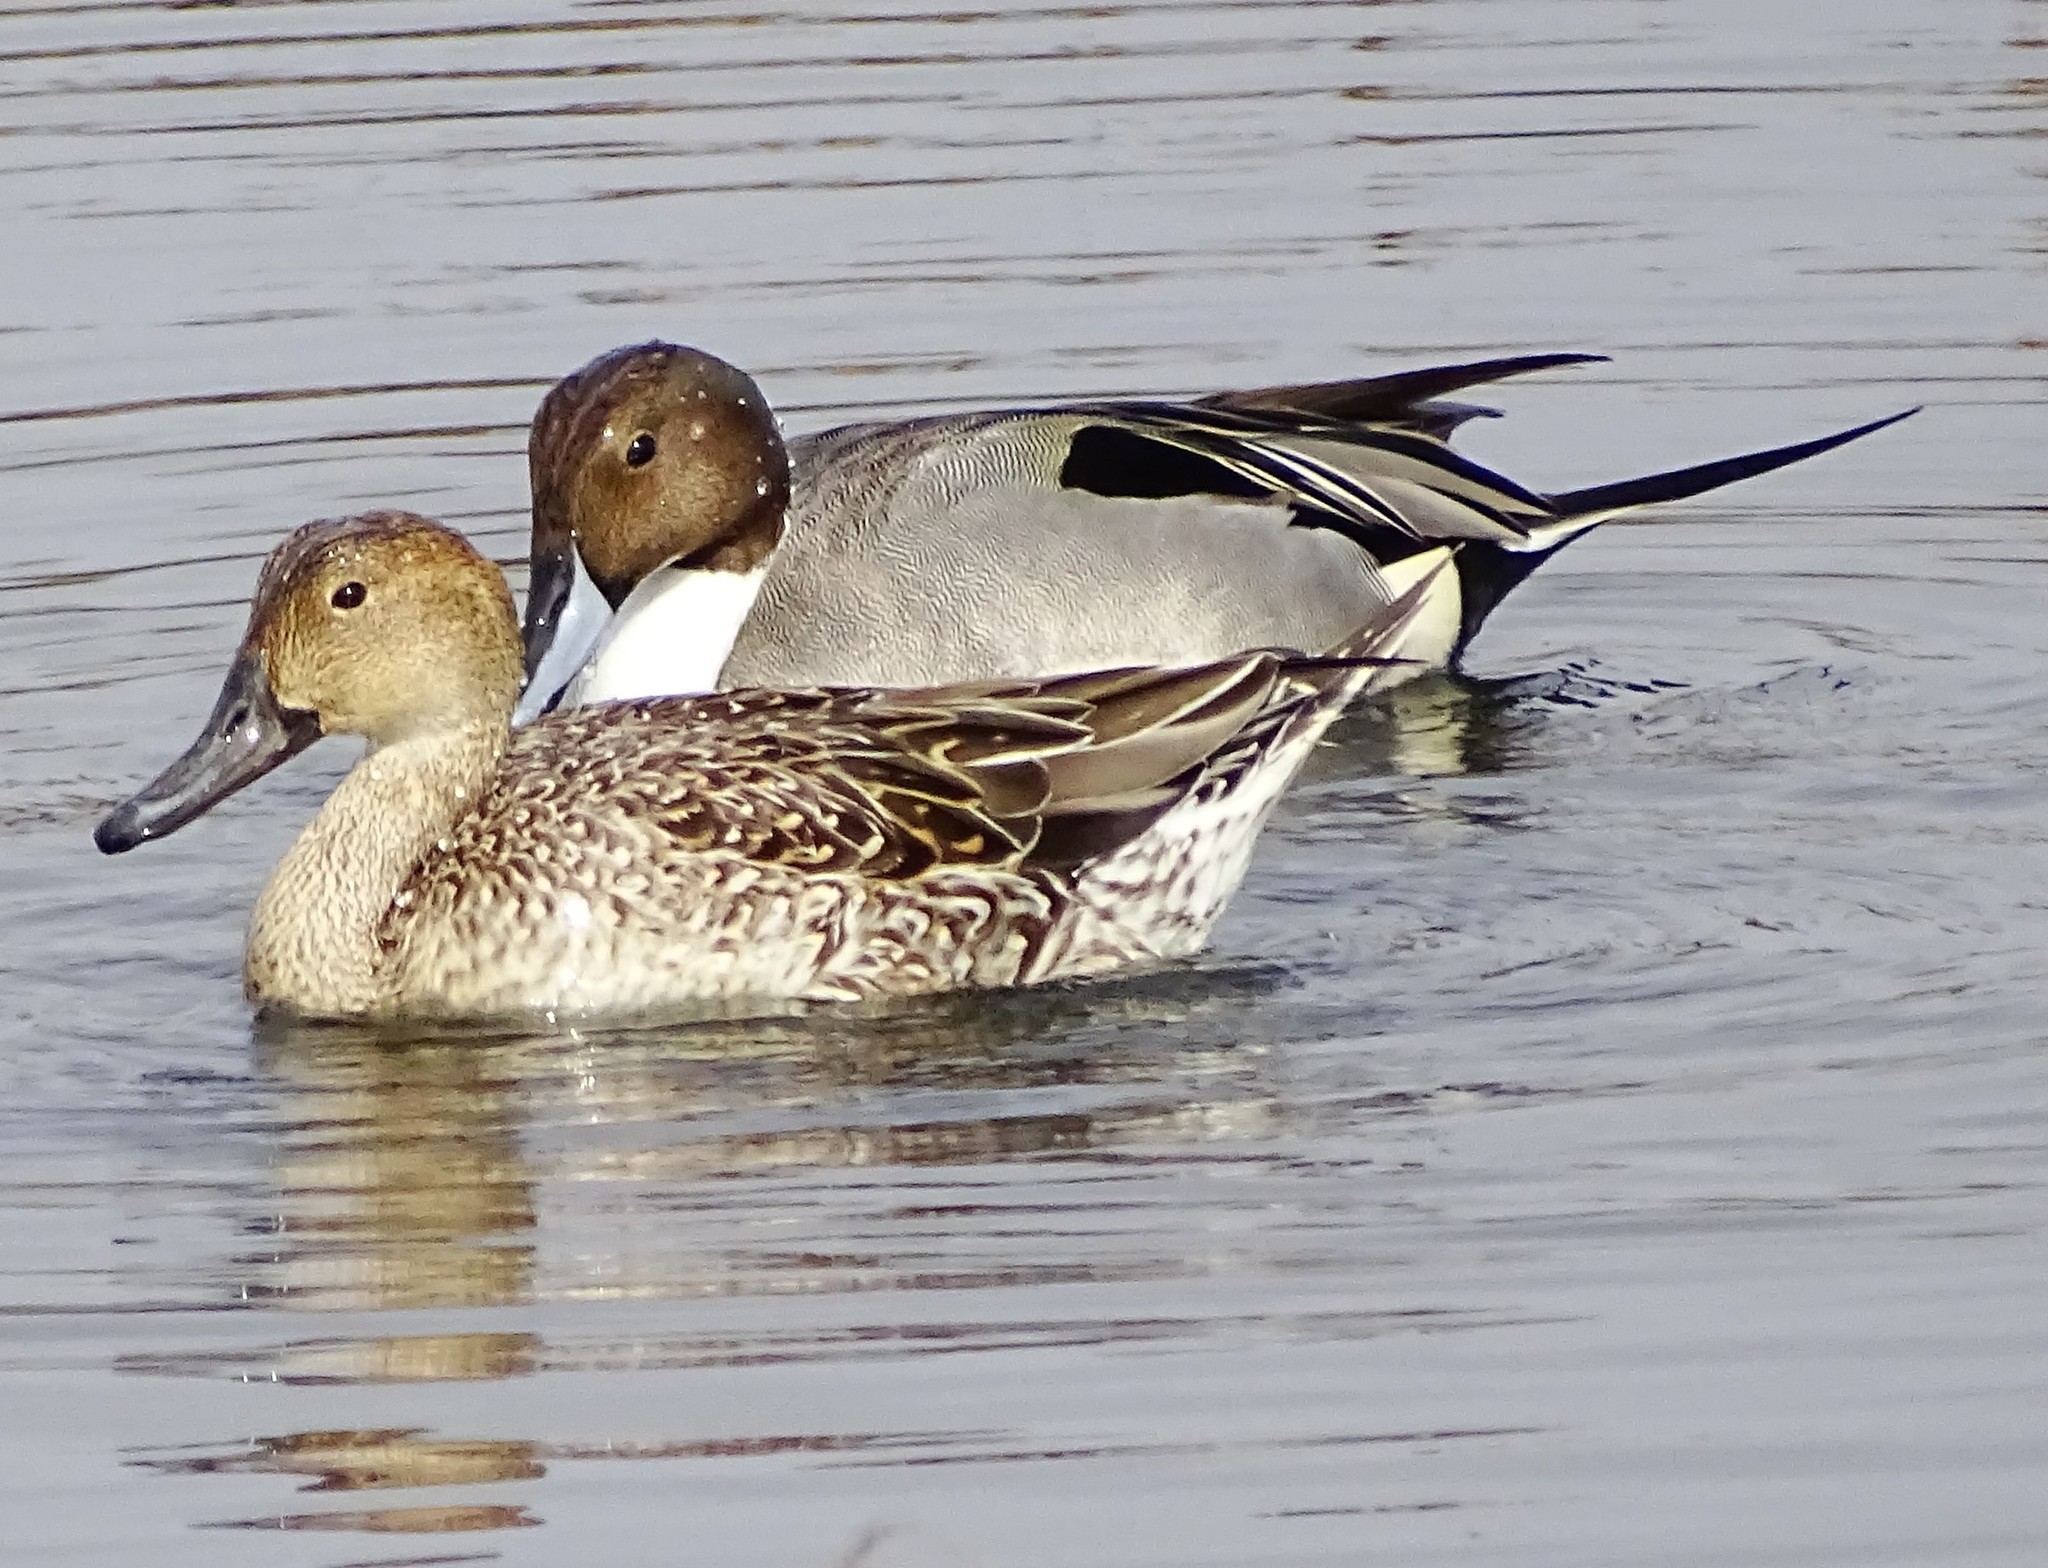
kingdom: Animalia
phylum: Chordata
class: Aves
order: Anseriformes
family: Anatidae
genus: Anas
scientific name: Anas acuta
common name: Northern pintail
